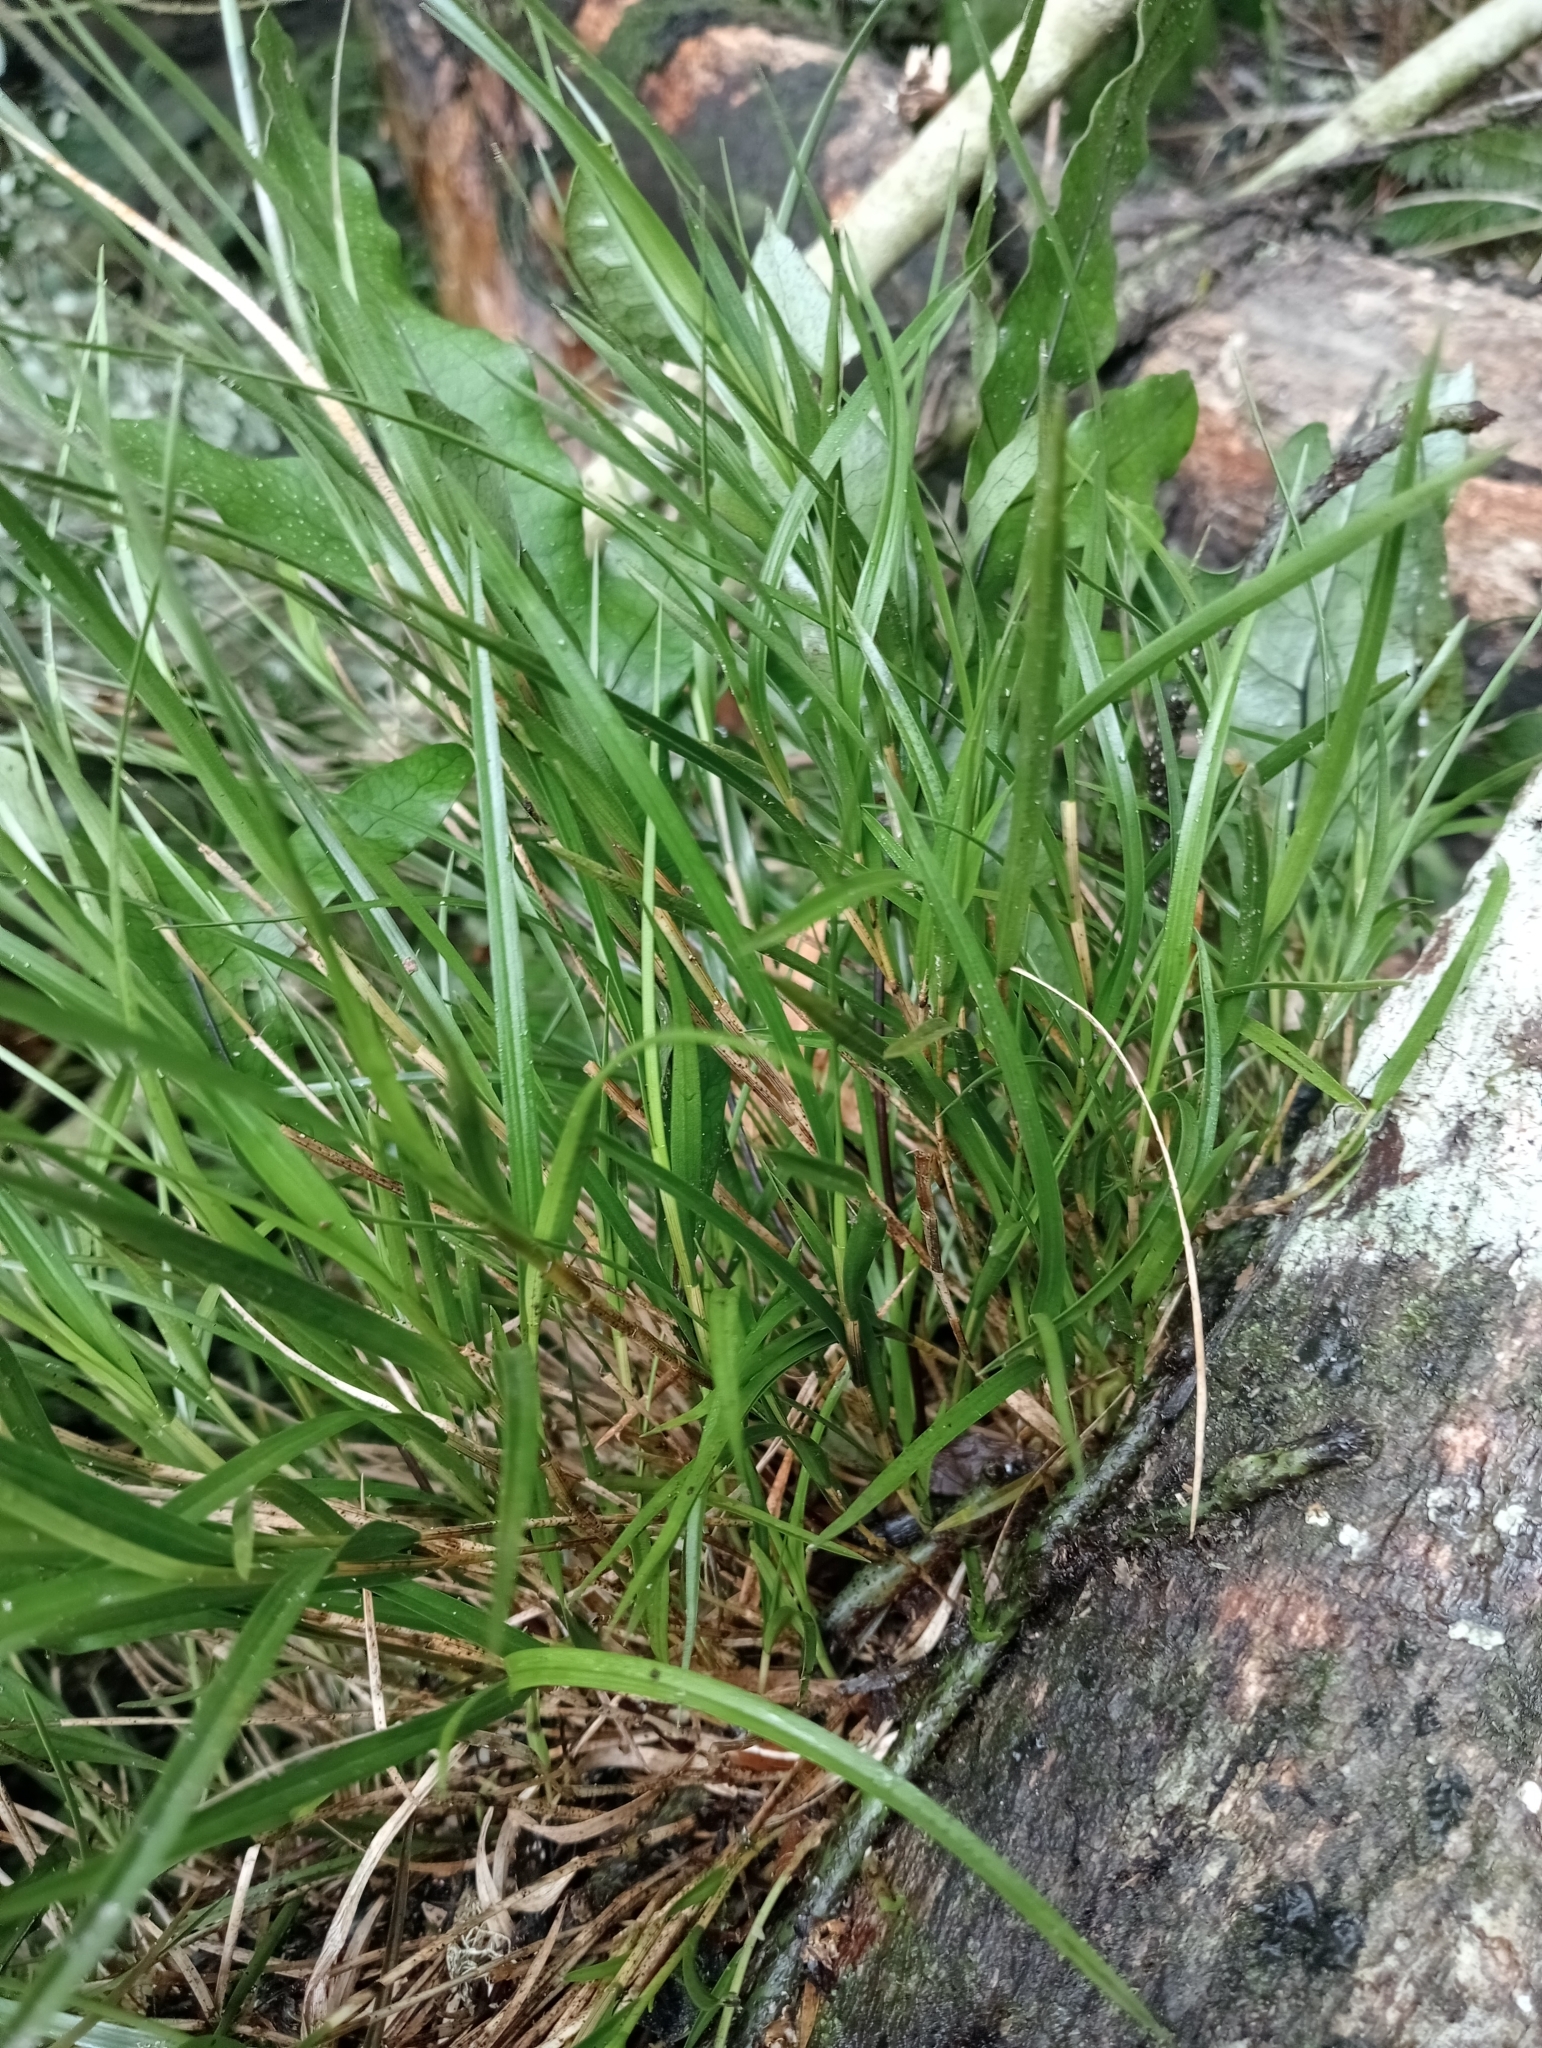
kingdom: Plantae
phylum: Tracheophyta
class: Liliopsida
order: Asparagales
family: Orchidaceae
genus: Earina
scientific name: Earina mucronata
